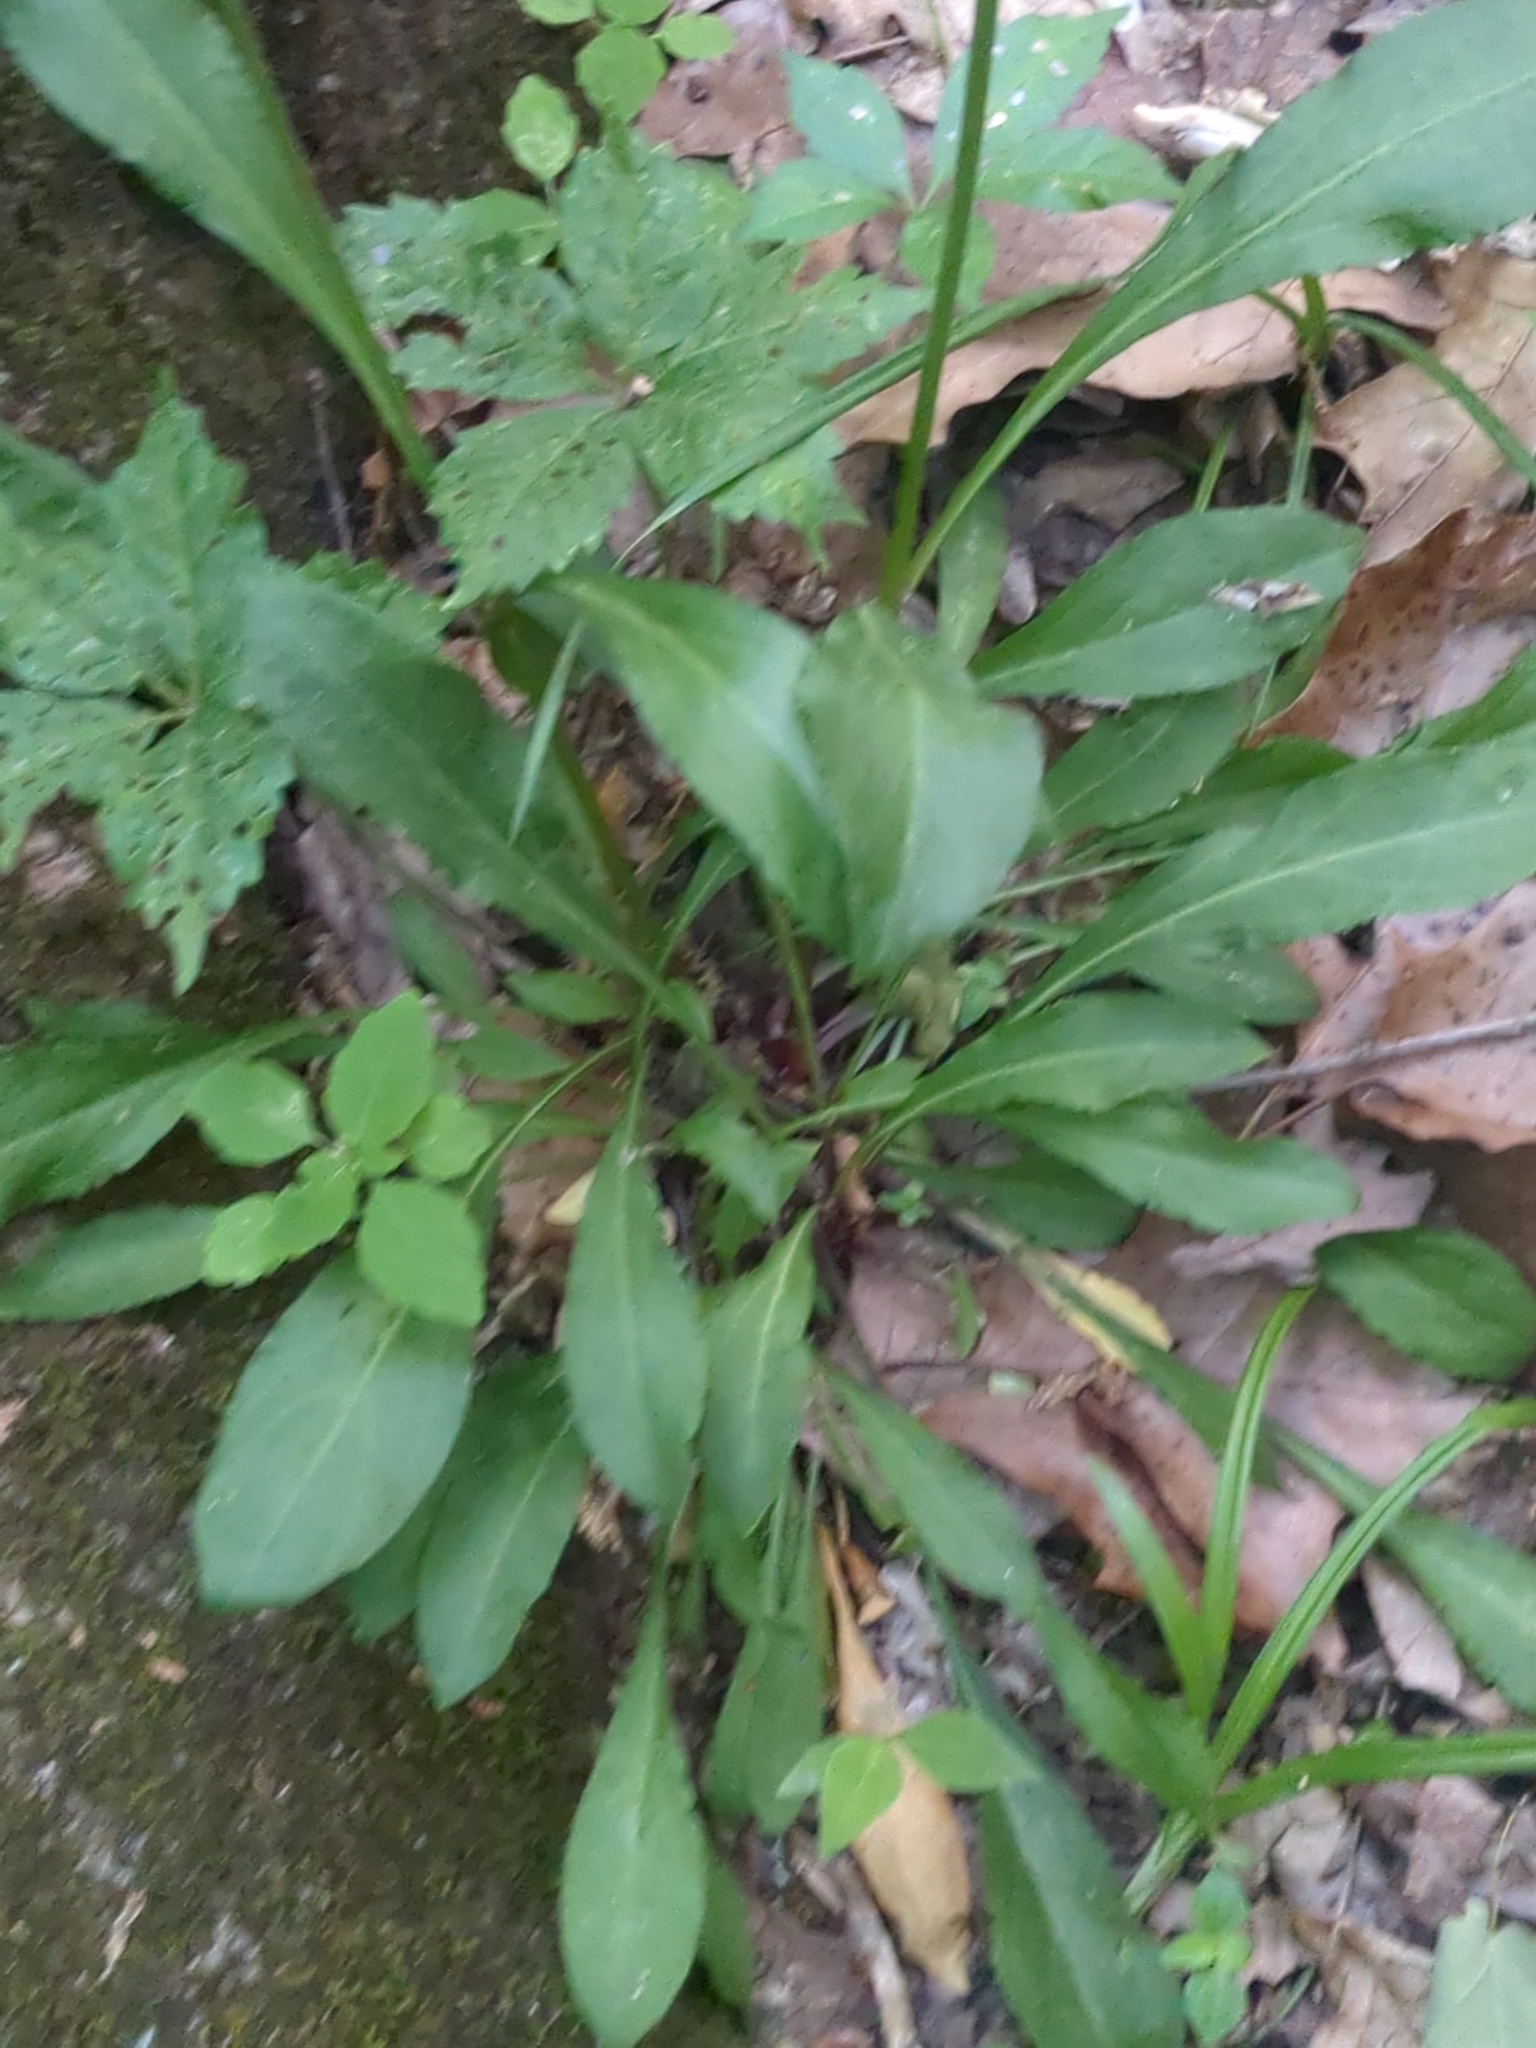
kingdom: Plantae
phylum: Tracheophyta
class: Magnoliopsida
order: Caryophyllales
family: Caryophyllaceae
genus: Silene
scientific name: Silene virginica
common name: Fire-pink
